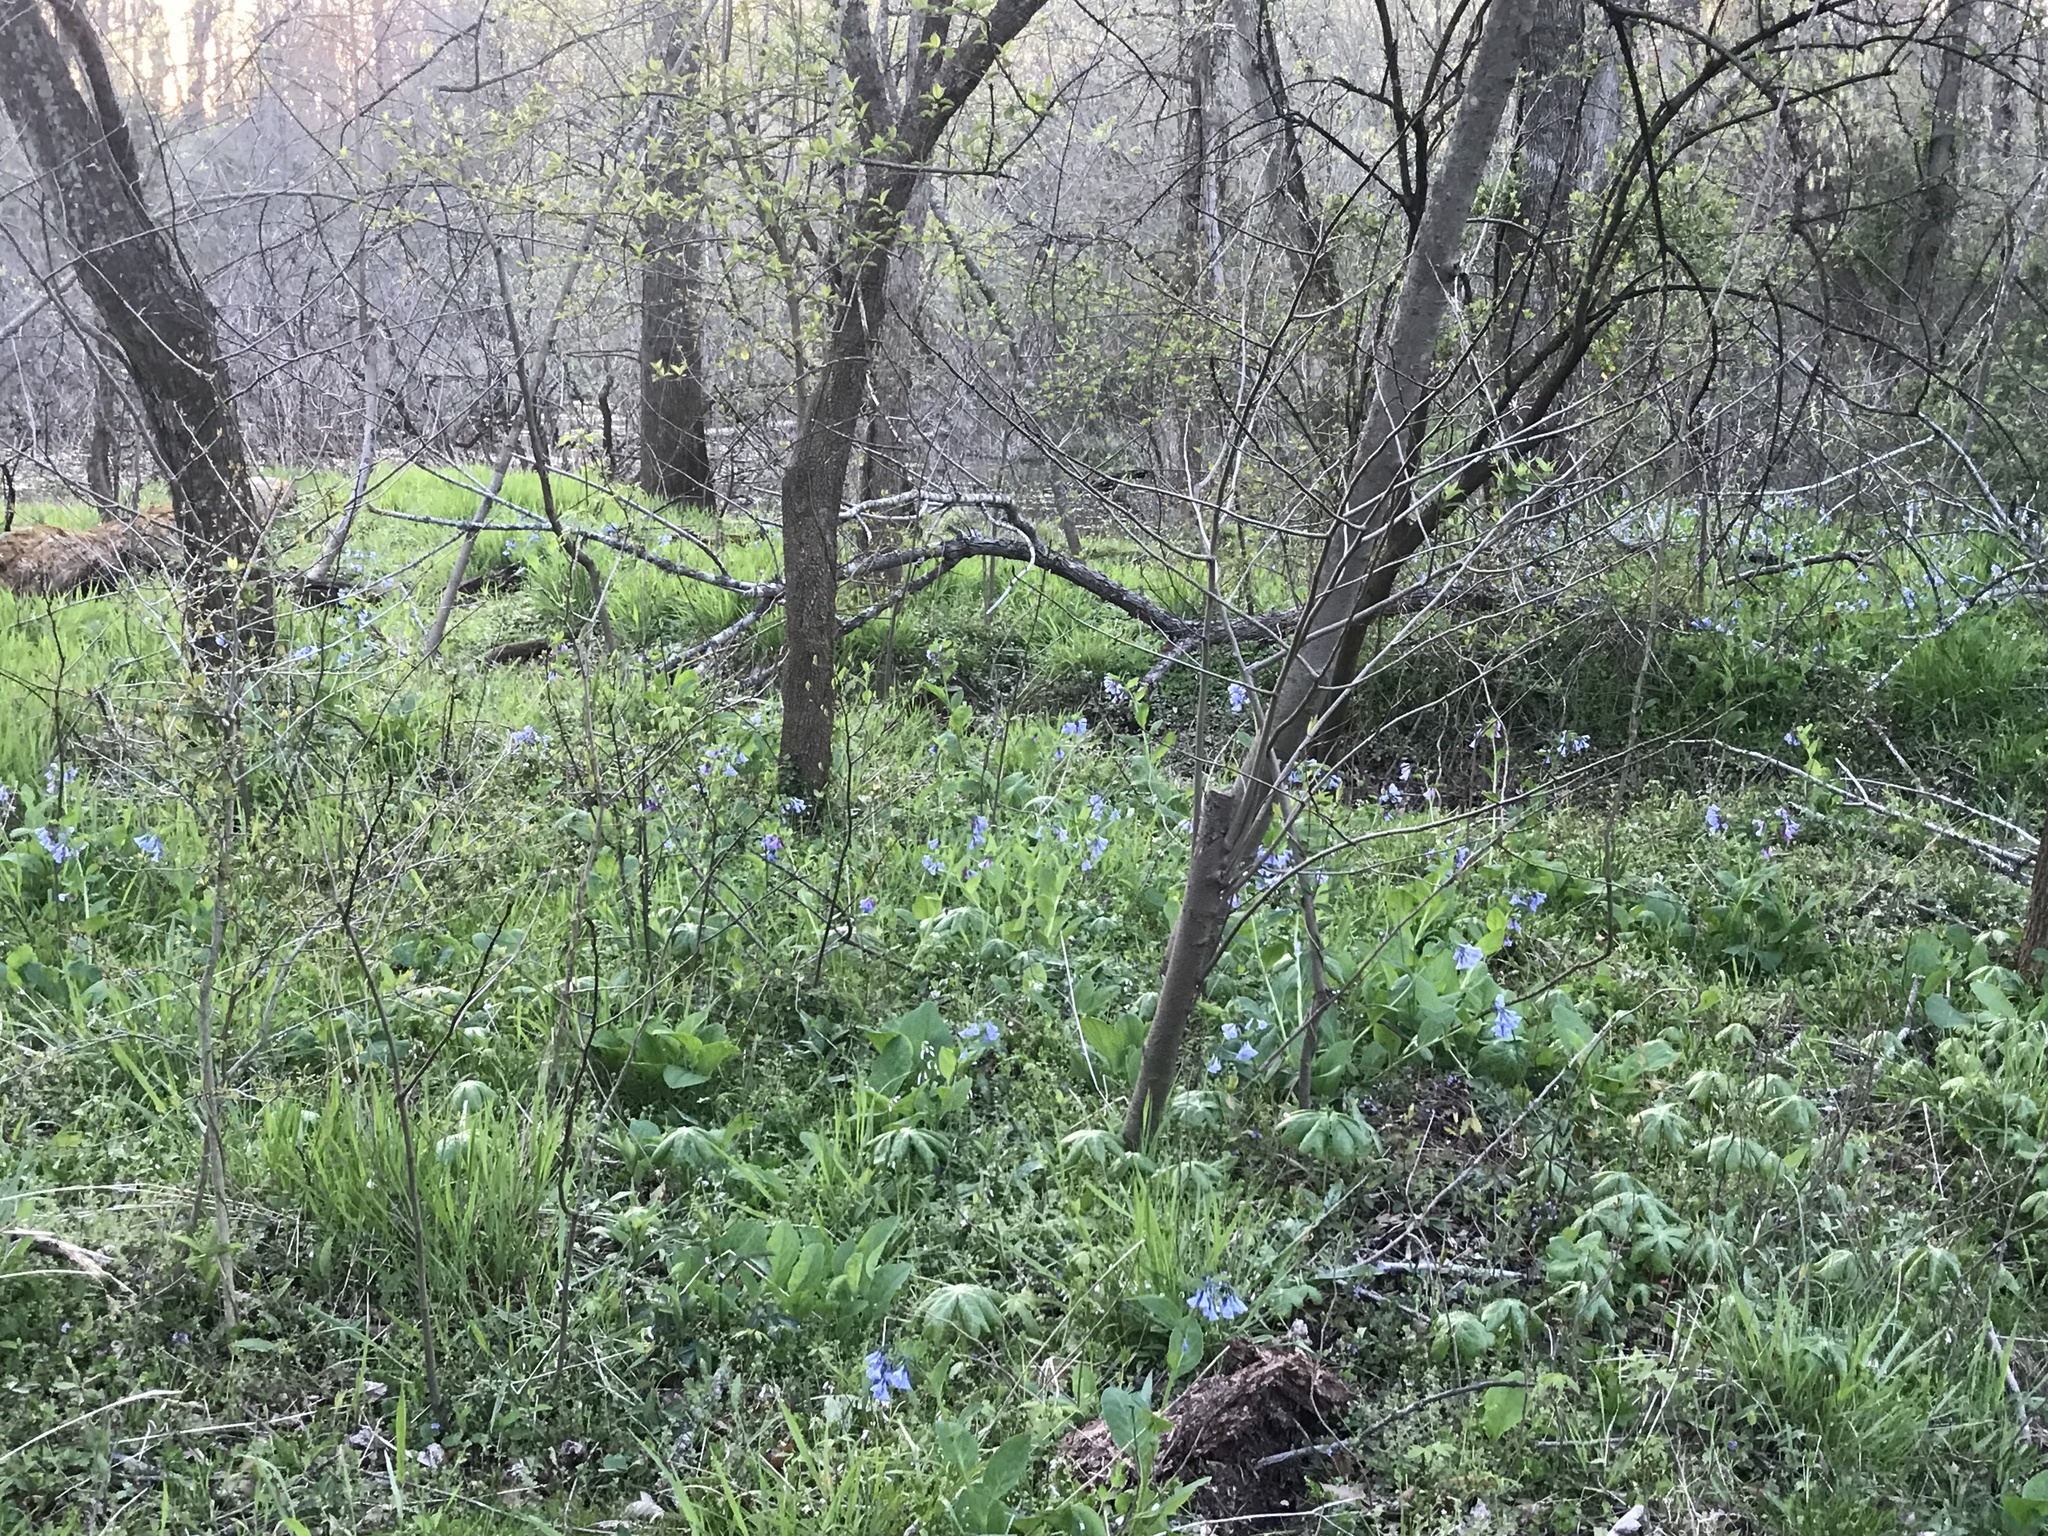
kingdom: Plantae
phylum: Tracheophyta
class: Magnoliopsida
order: Boraginales
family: Boraginaceae
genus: Mertensia
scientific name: Mertensia virginica
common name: Virginia bluebells
